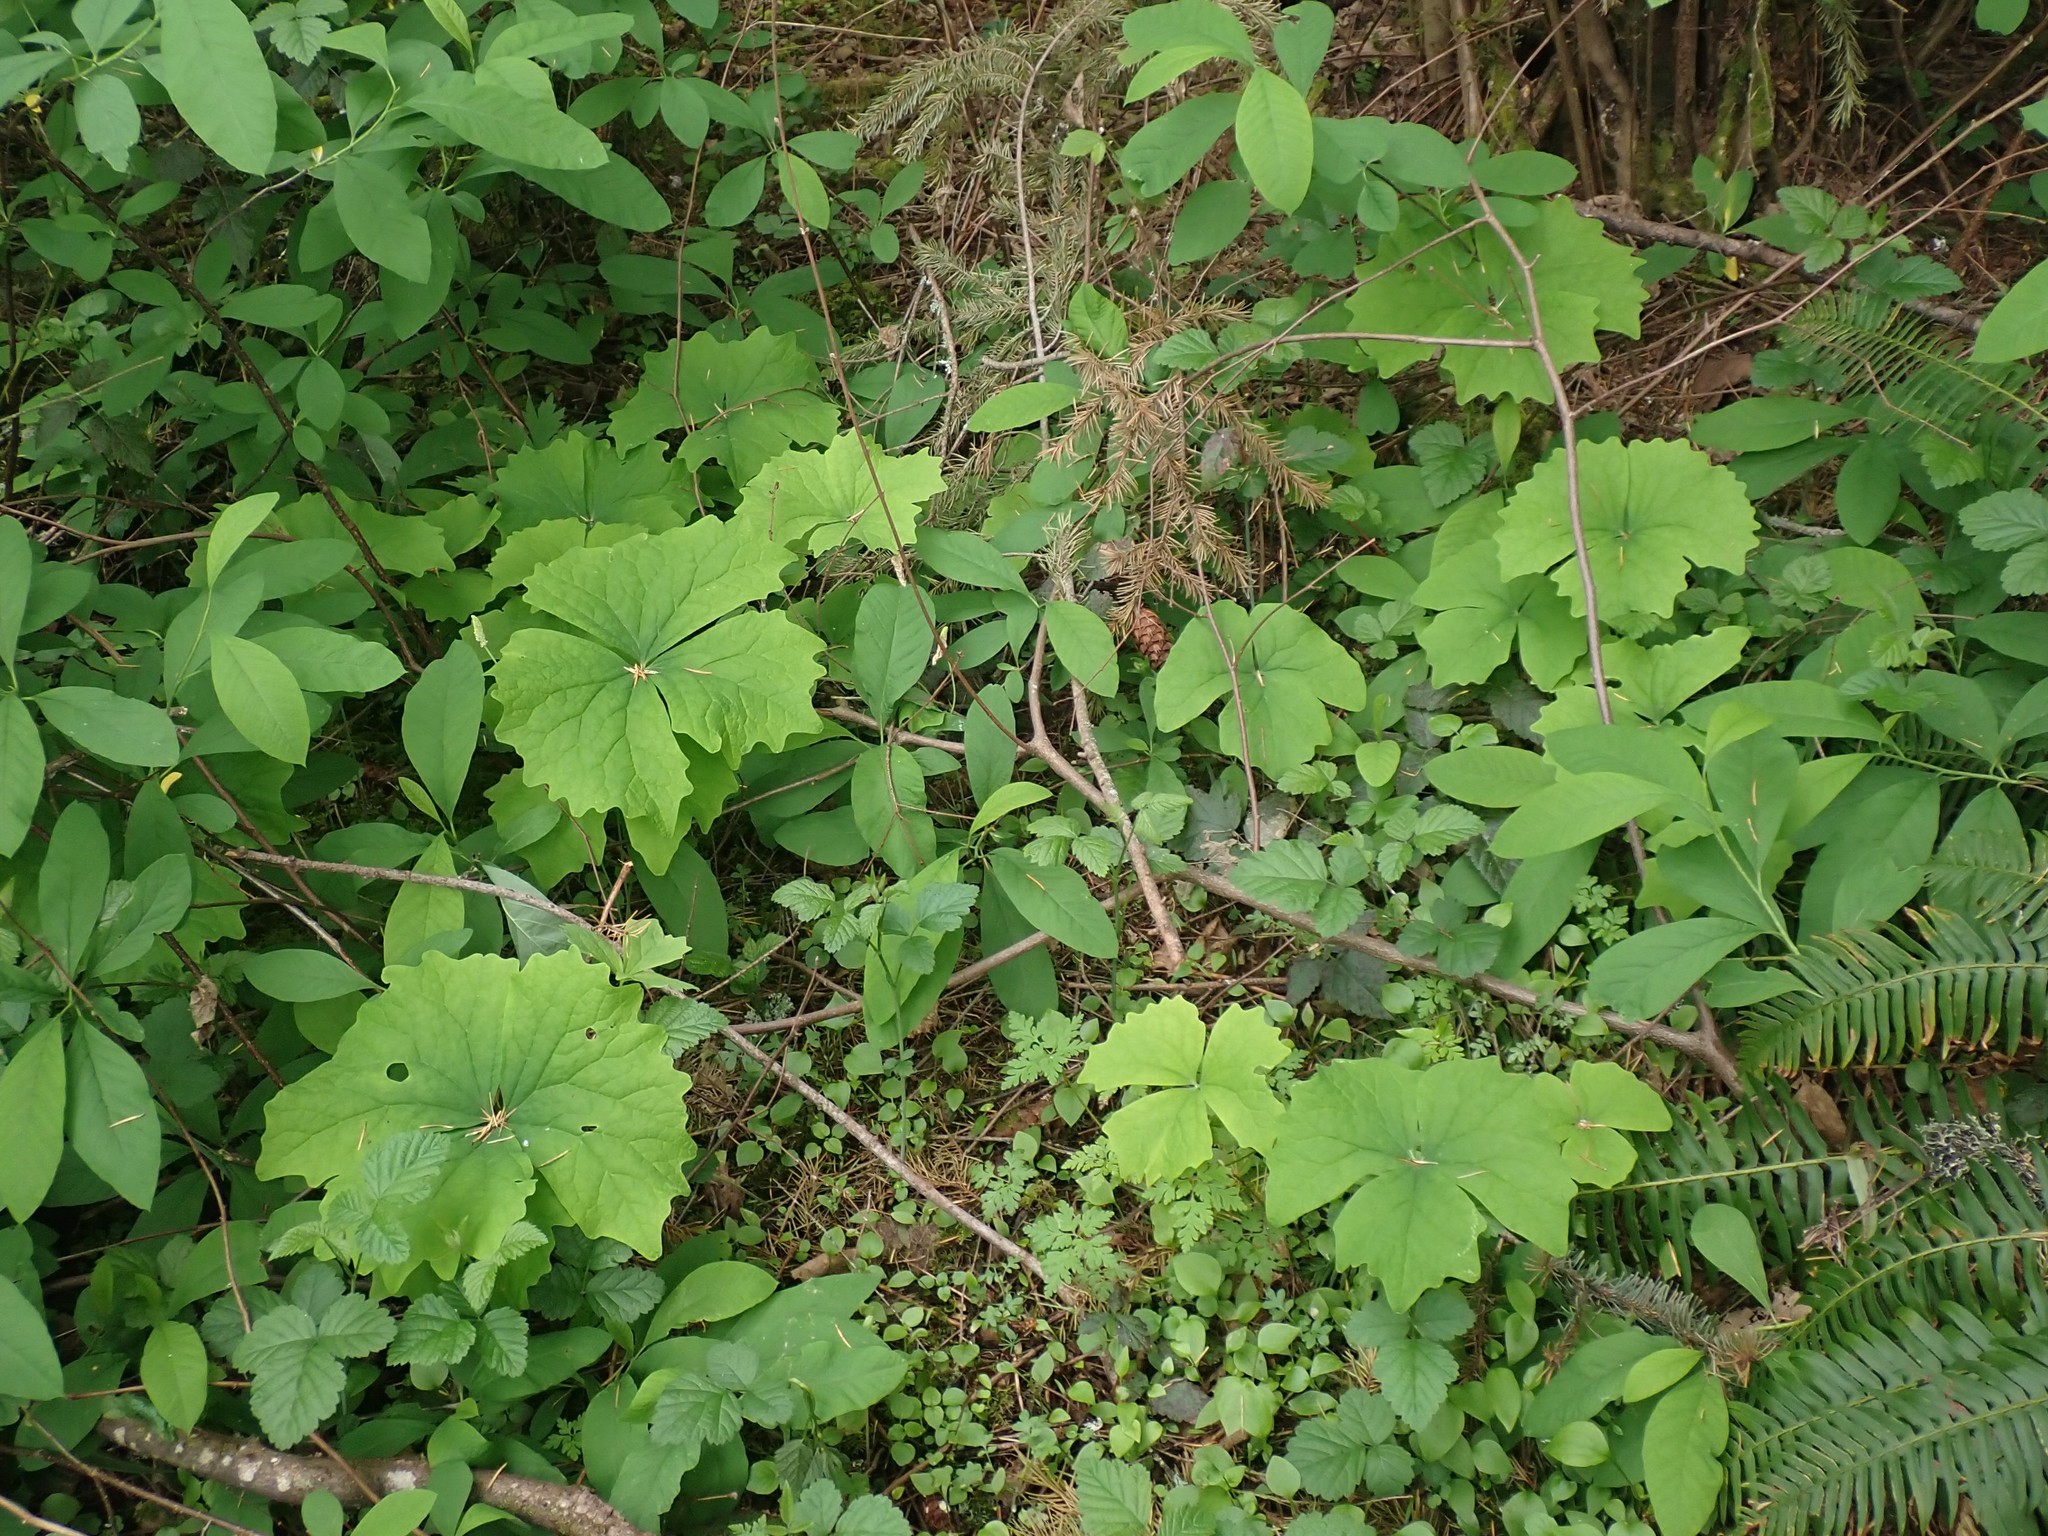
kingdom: Plantae
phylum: Tracheophyta
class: Magnoliopsida
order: Ranunculales
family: Berberidaceae
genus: Achlys
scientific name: Achlys triphylla
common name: Vanilla-leaf
